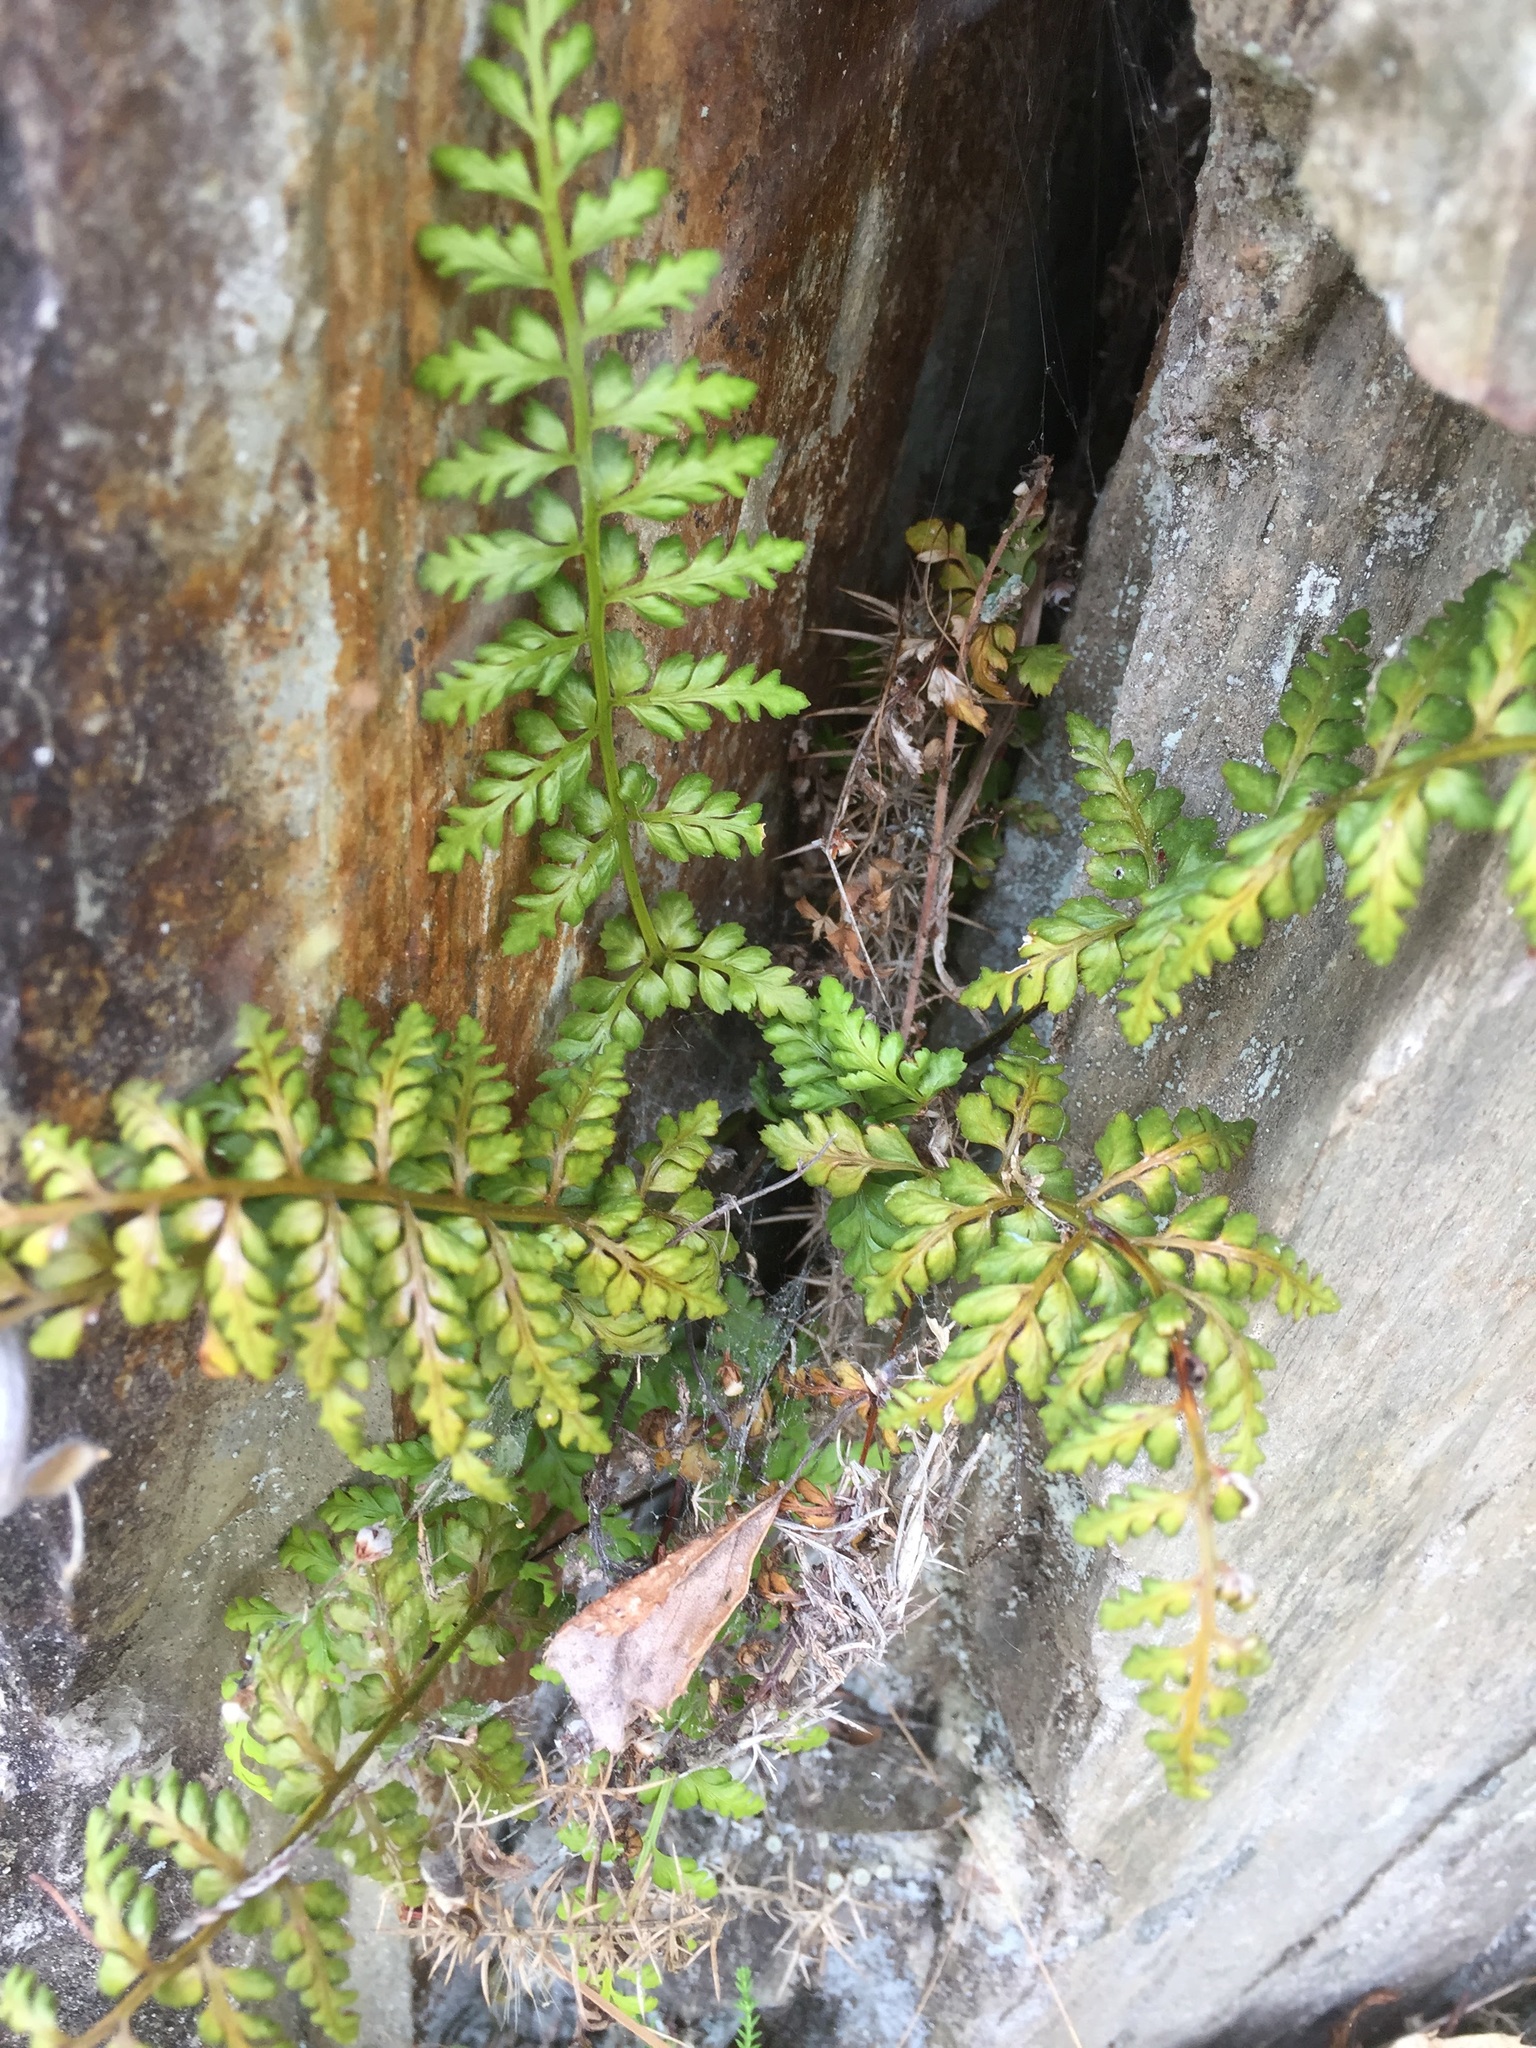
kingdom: Plantae
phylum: Tracheophyta
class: Polypodiopsida
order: Polypodiales
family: Aspleniaceae
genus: Asplenium
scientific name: Asplenium obovatum
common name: Lanceolate spleenwort
